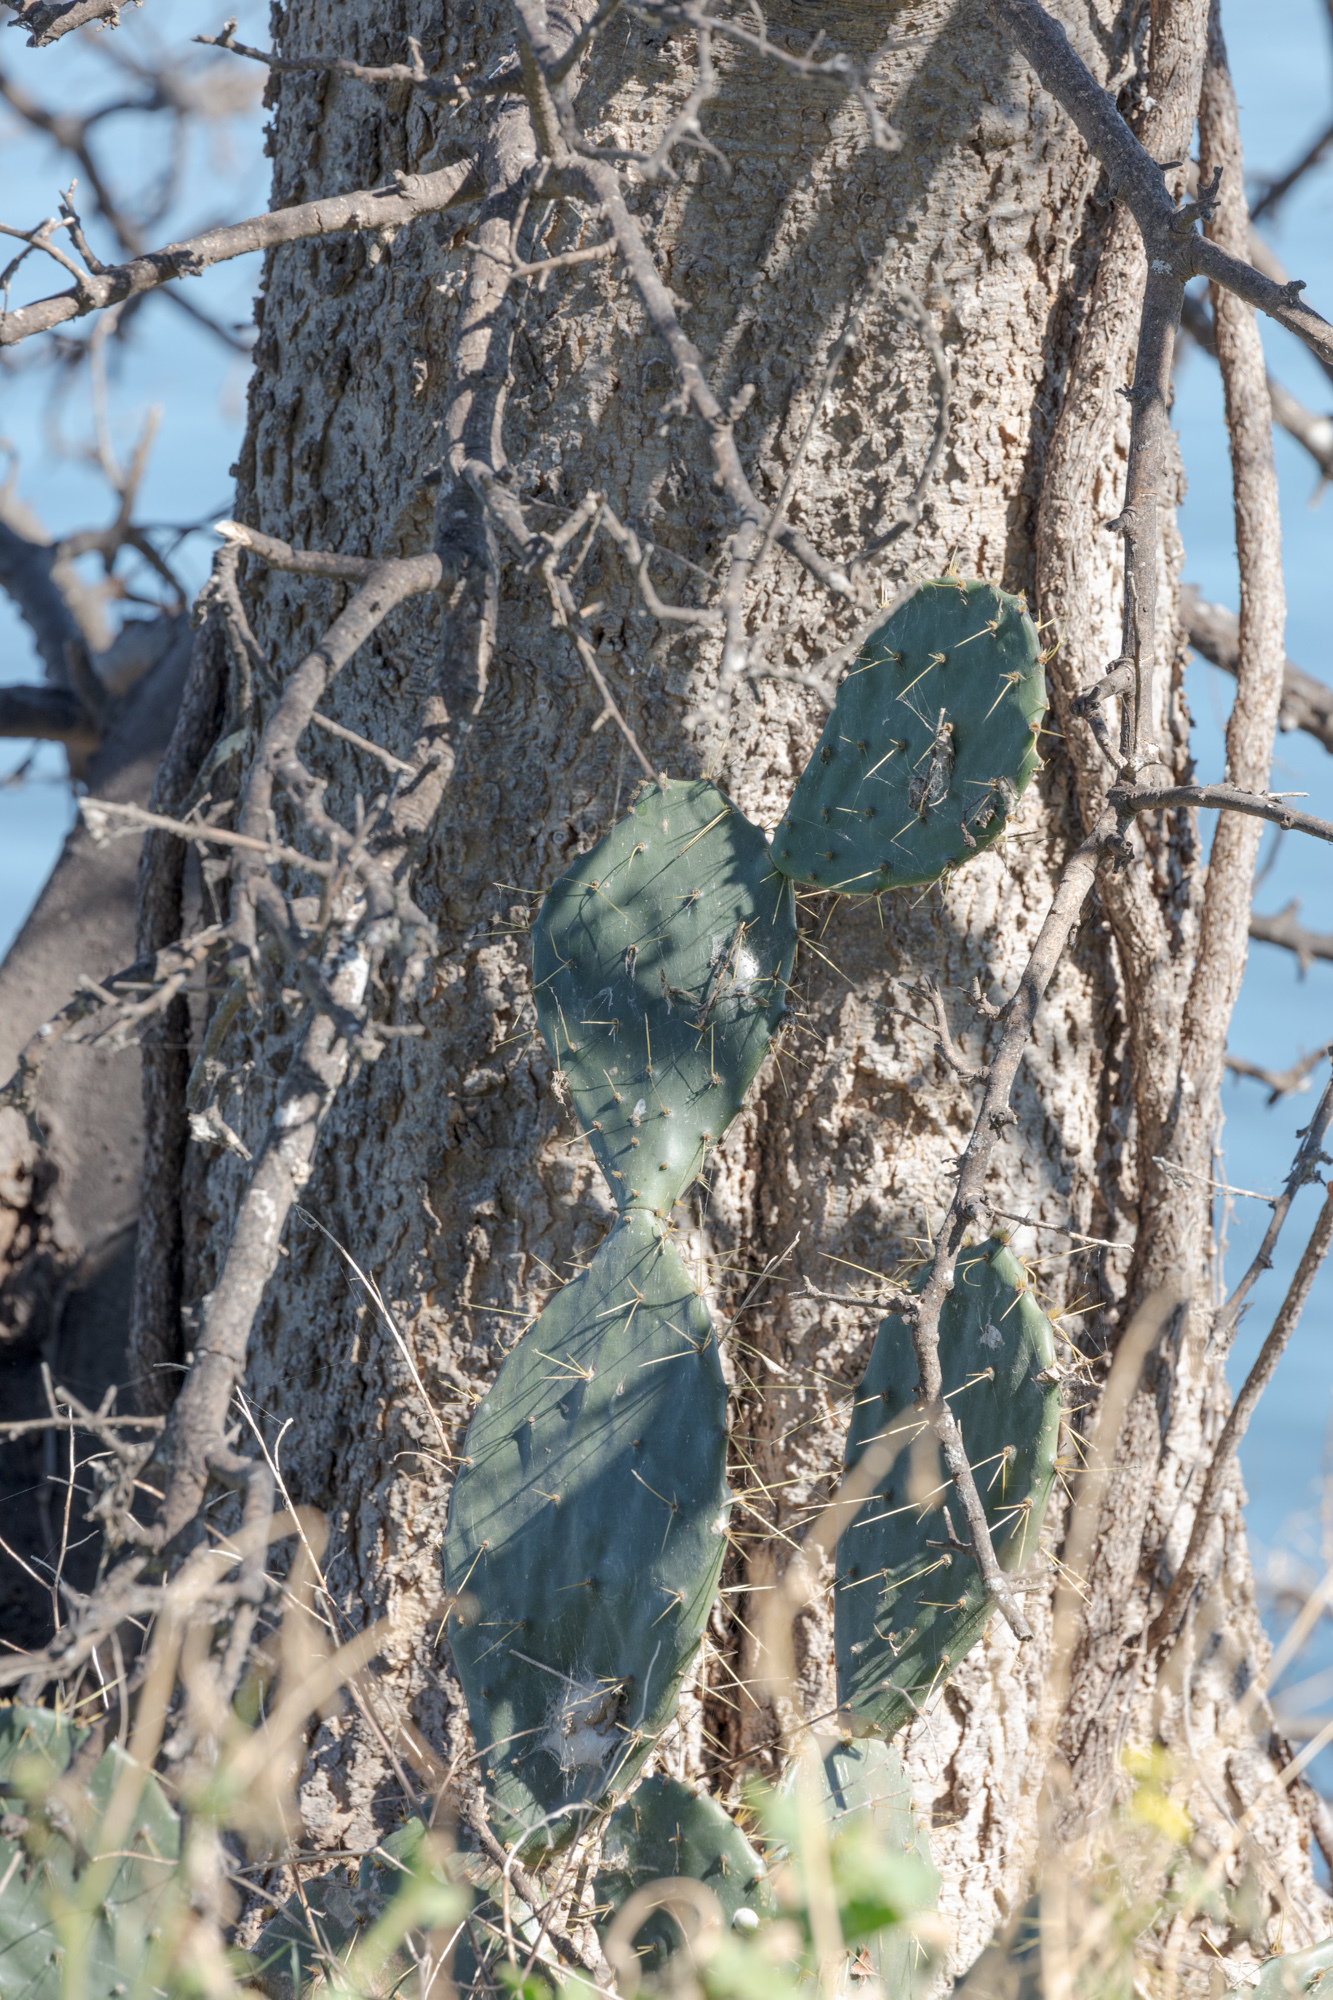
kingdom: Plantae
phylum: Tracheophyta
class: Magnoliopsida
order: Caryophyllales
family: Cactaceae
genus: Opuntia
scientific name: Opuntia engelmannii
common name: Cactus-apple
